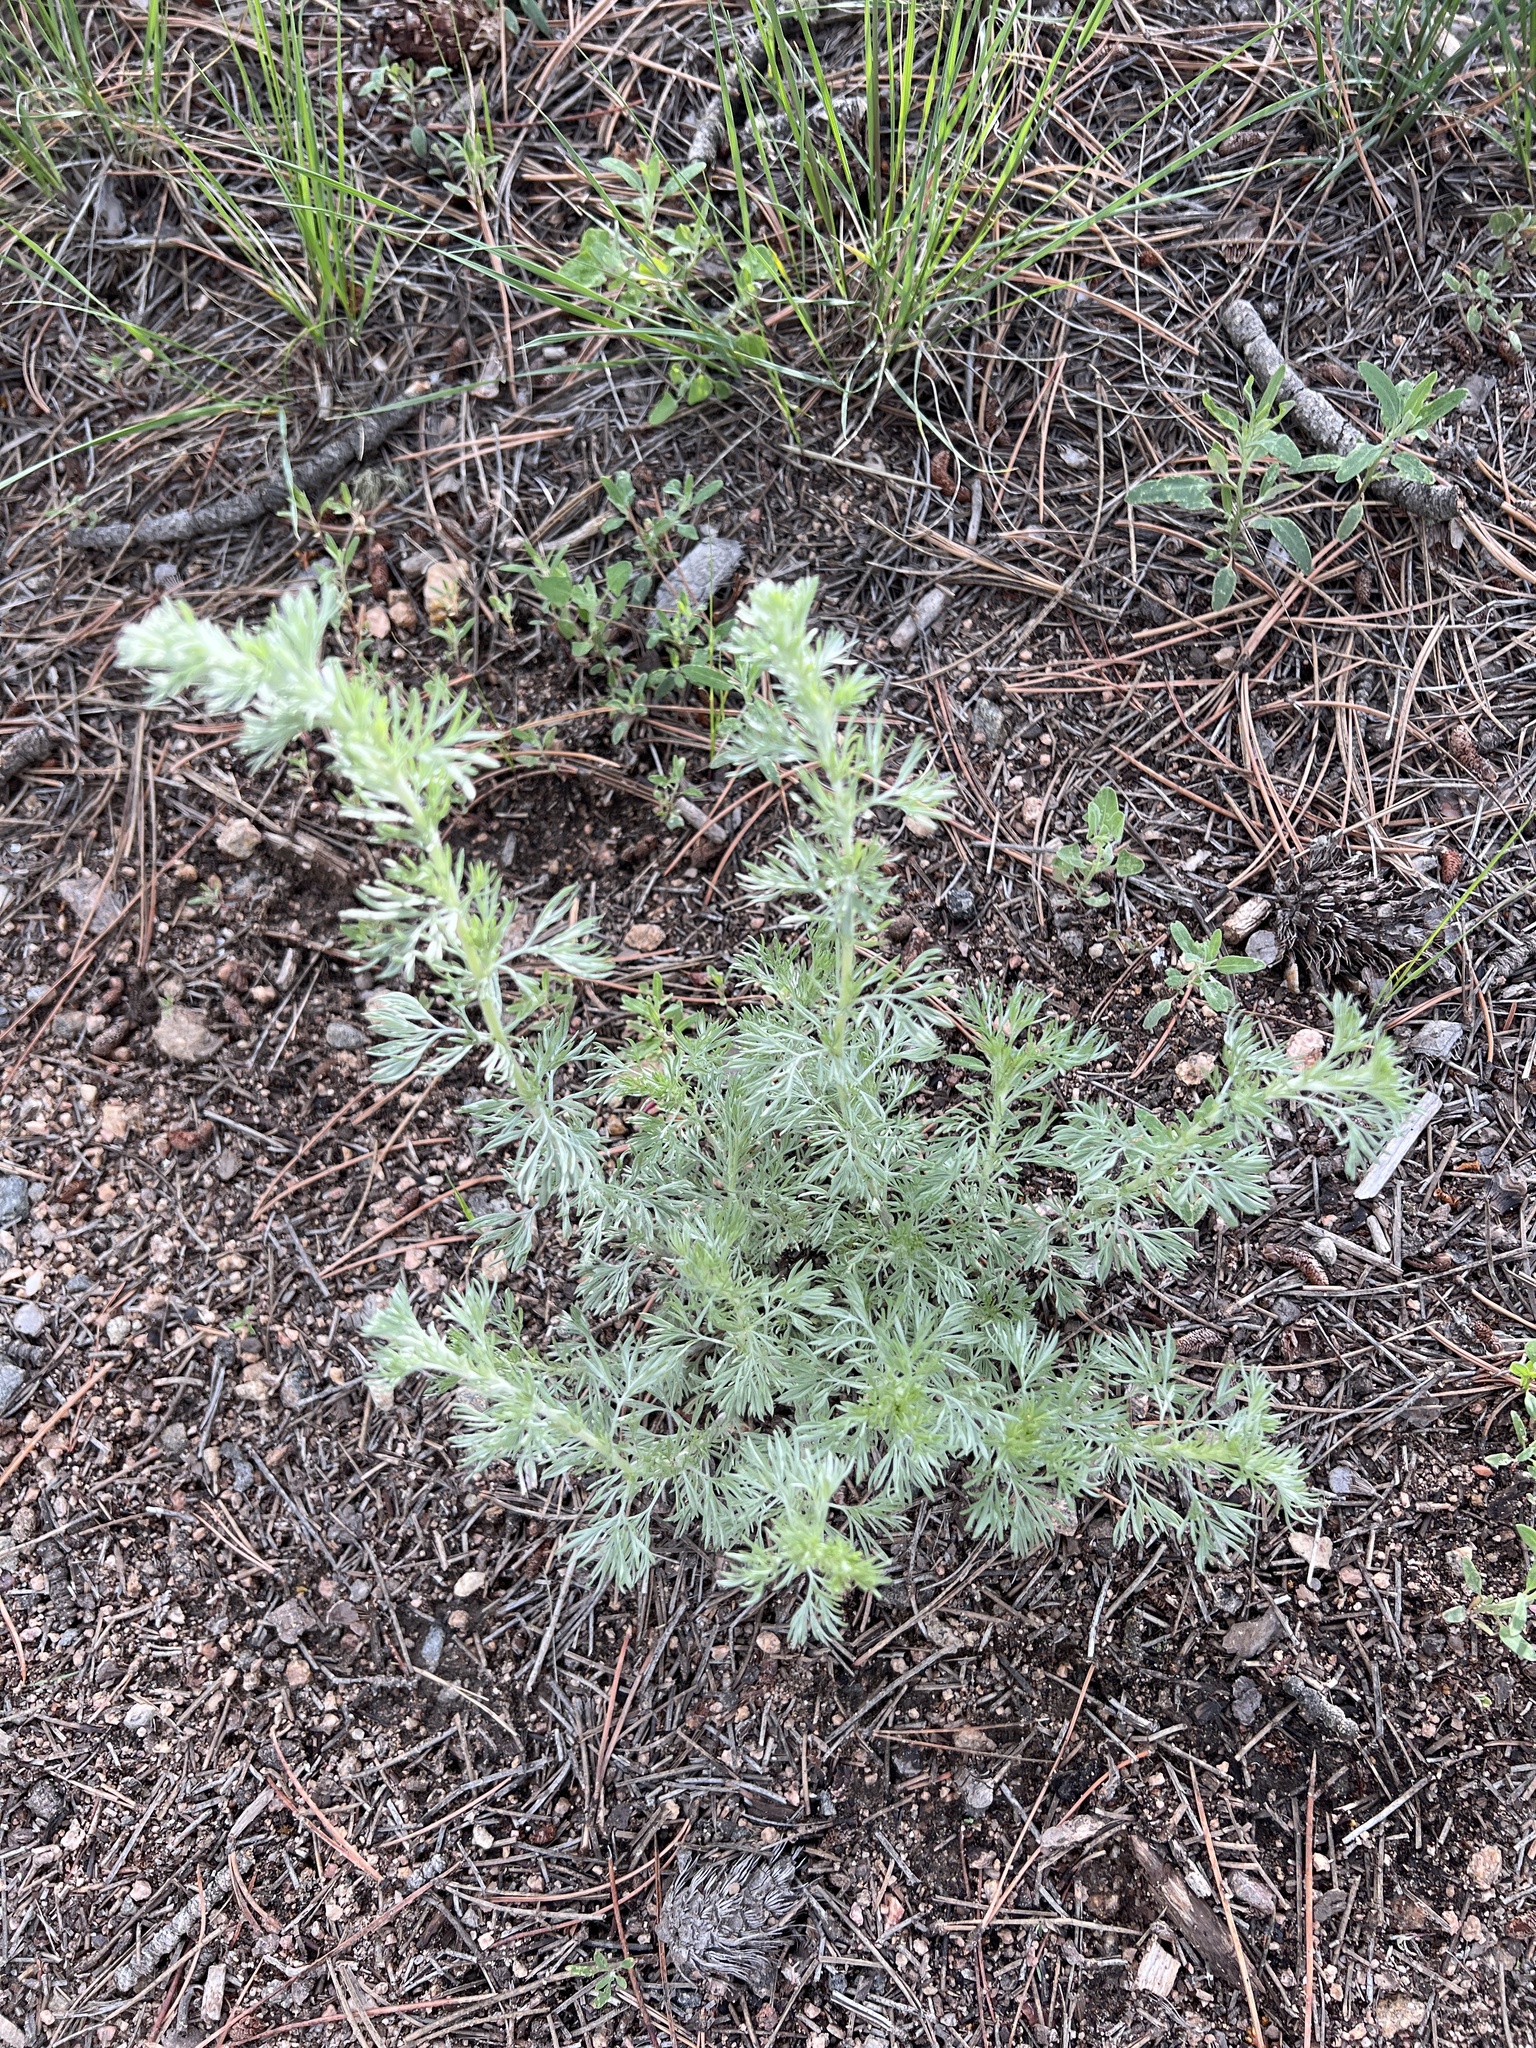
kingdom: Plantae
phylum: Tracheophyta
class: Magnoliopsida
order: Asterales
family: Asteraceae
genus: Artemisia
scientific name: Artemisia frigida
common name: Prairie sagewort
